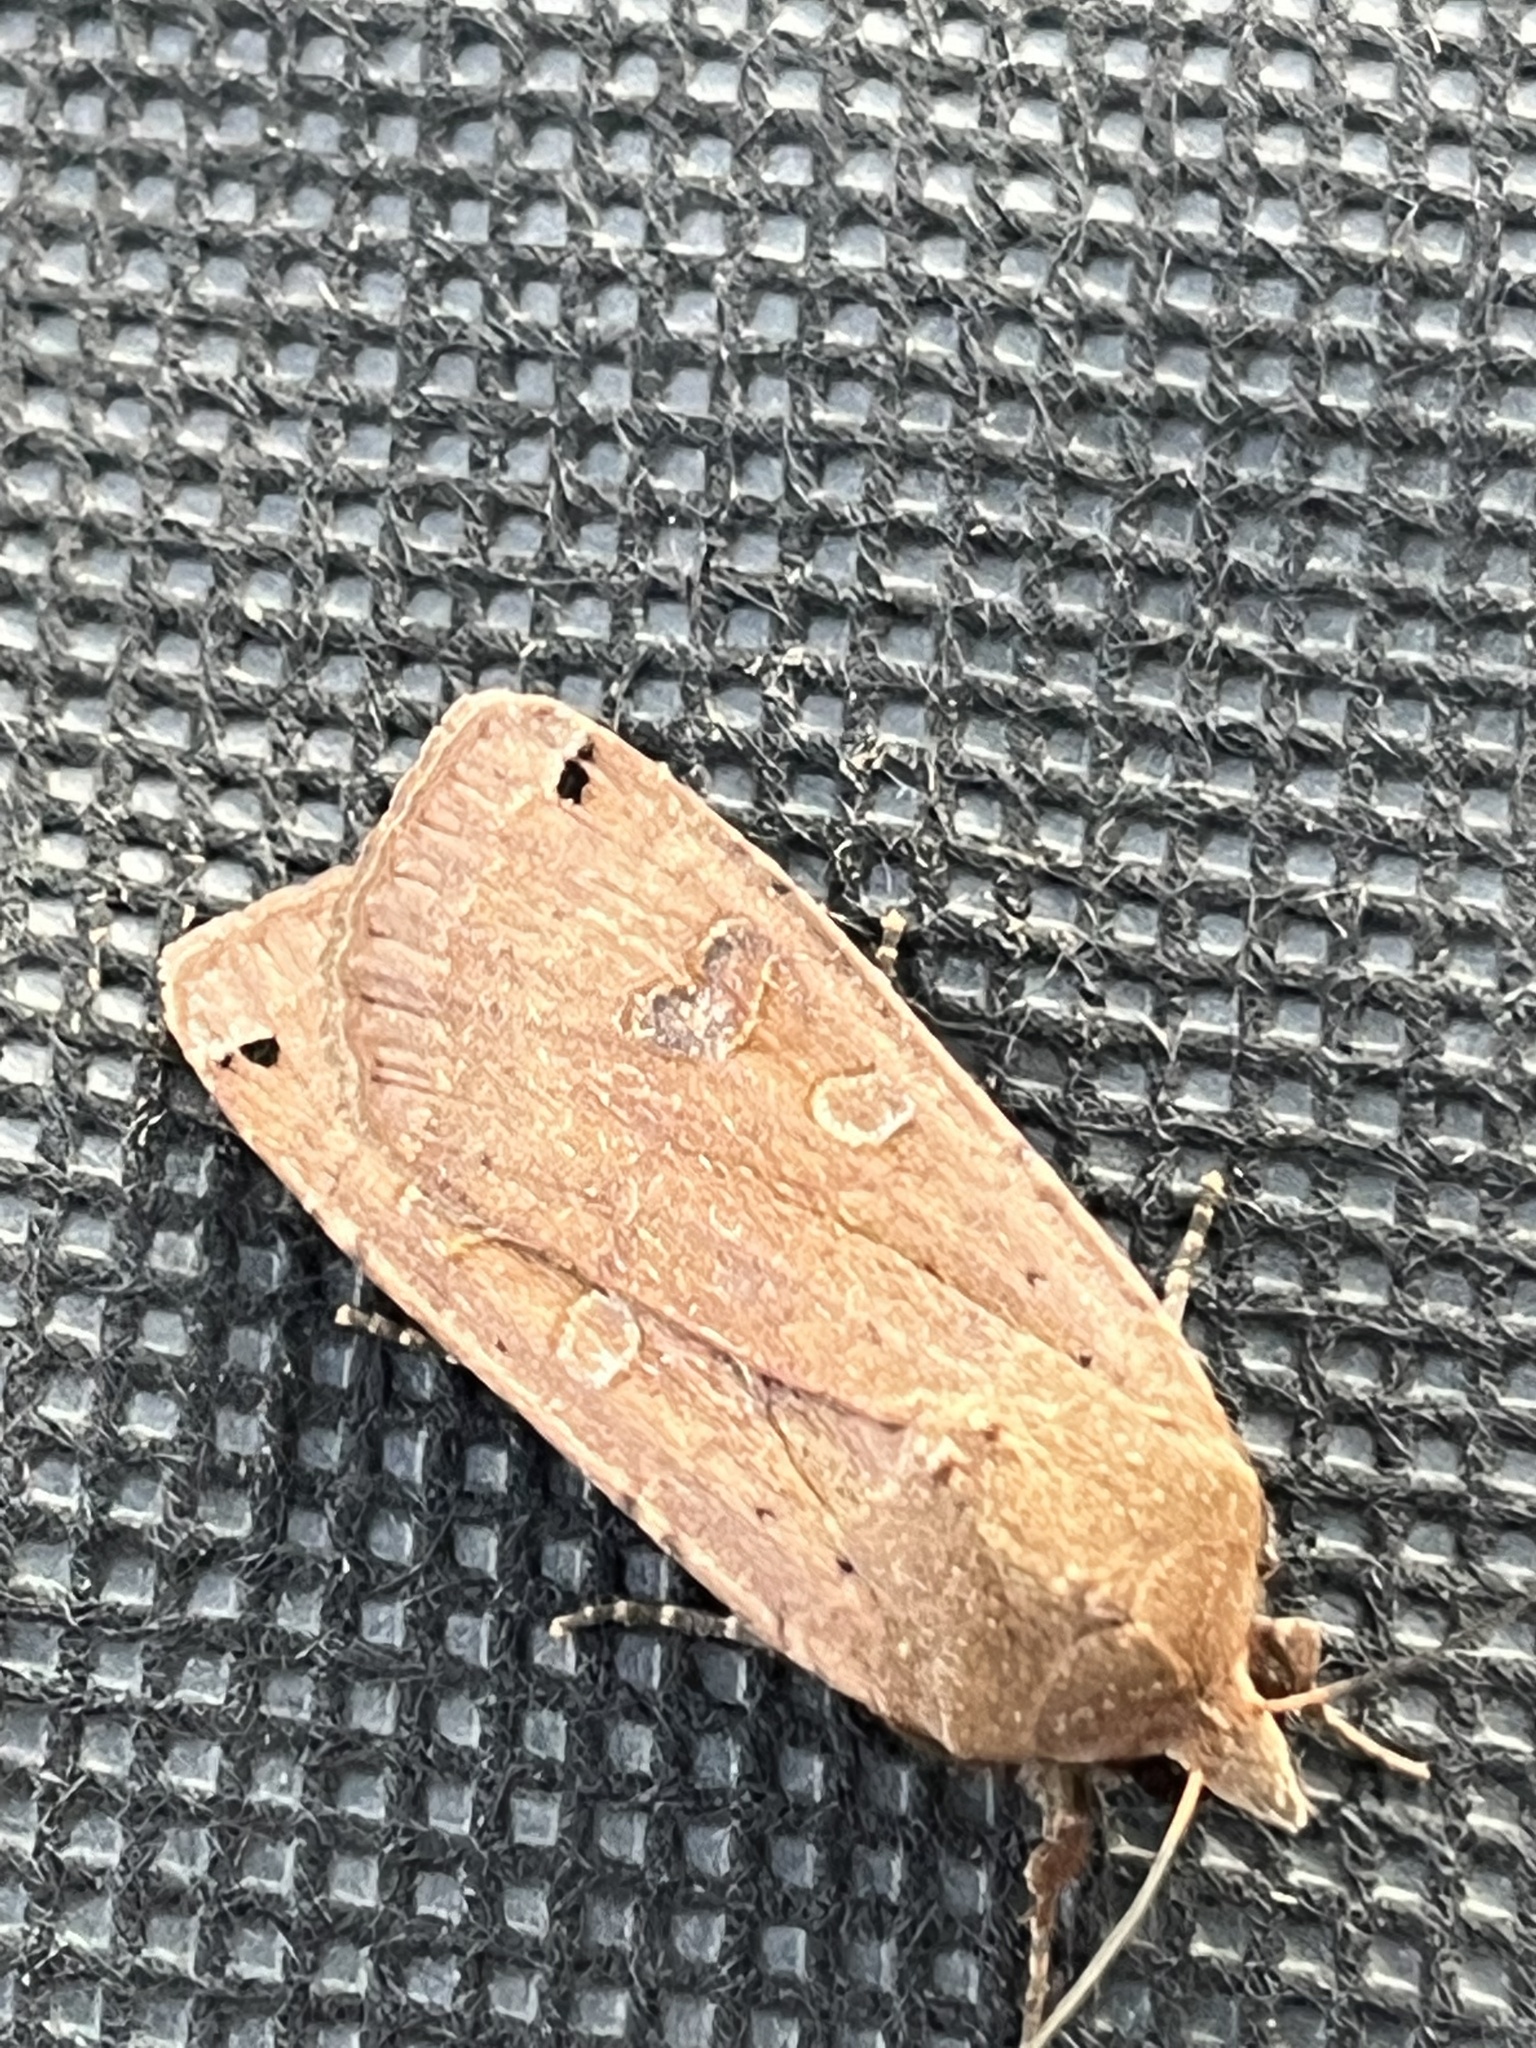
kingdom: Animalia
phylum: Arthropoda
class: Insecta
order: Lepidoptera
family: Noctuidae
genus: Noctua
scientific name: Noctua pronuba
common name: Large yellow underwing
